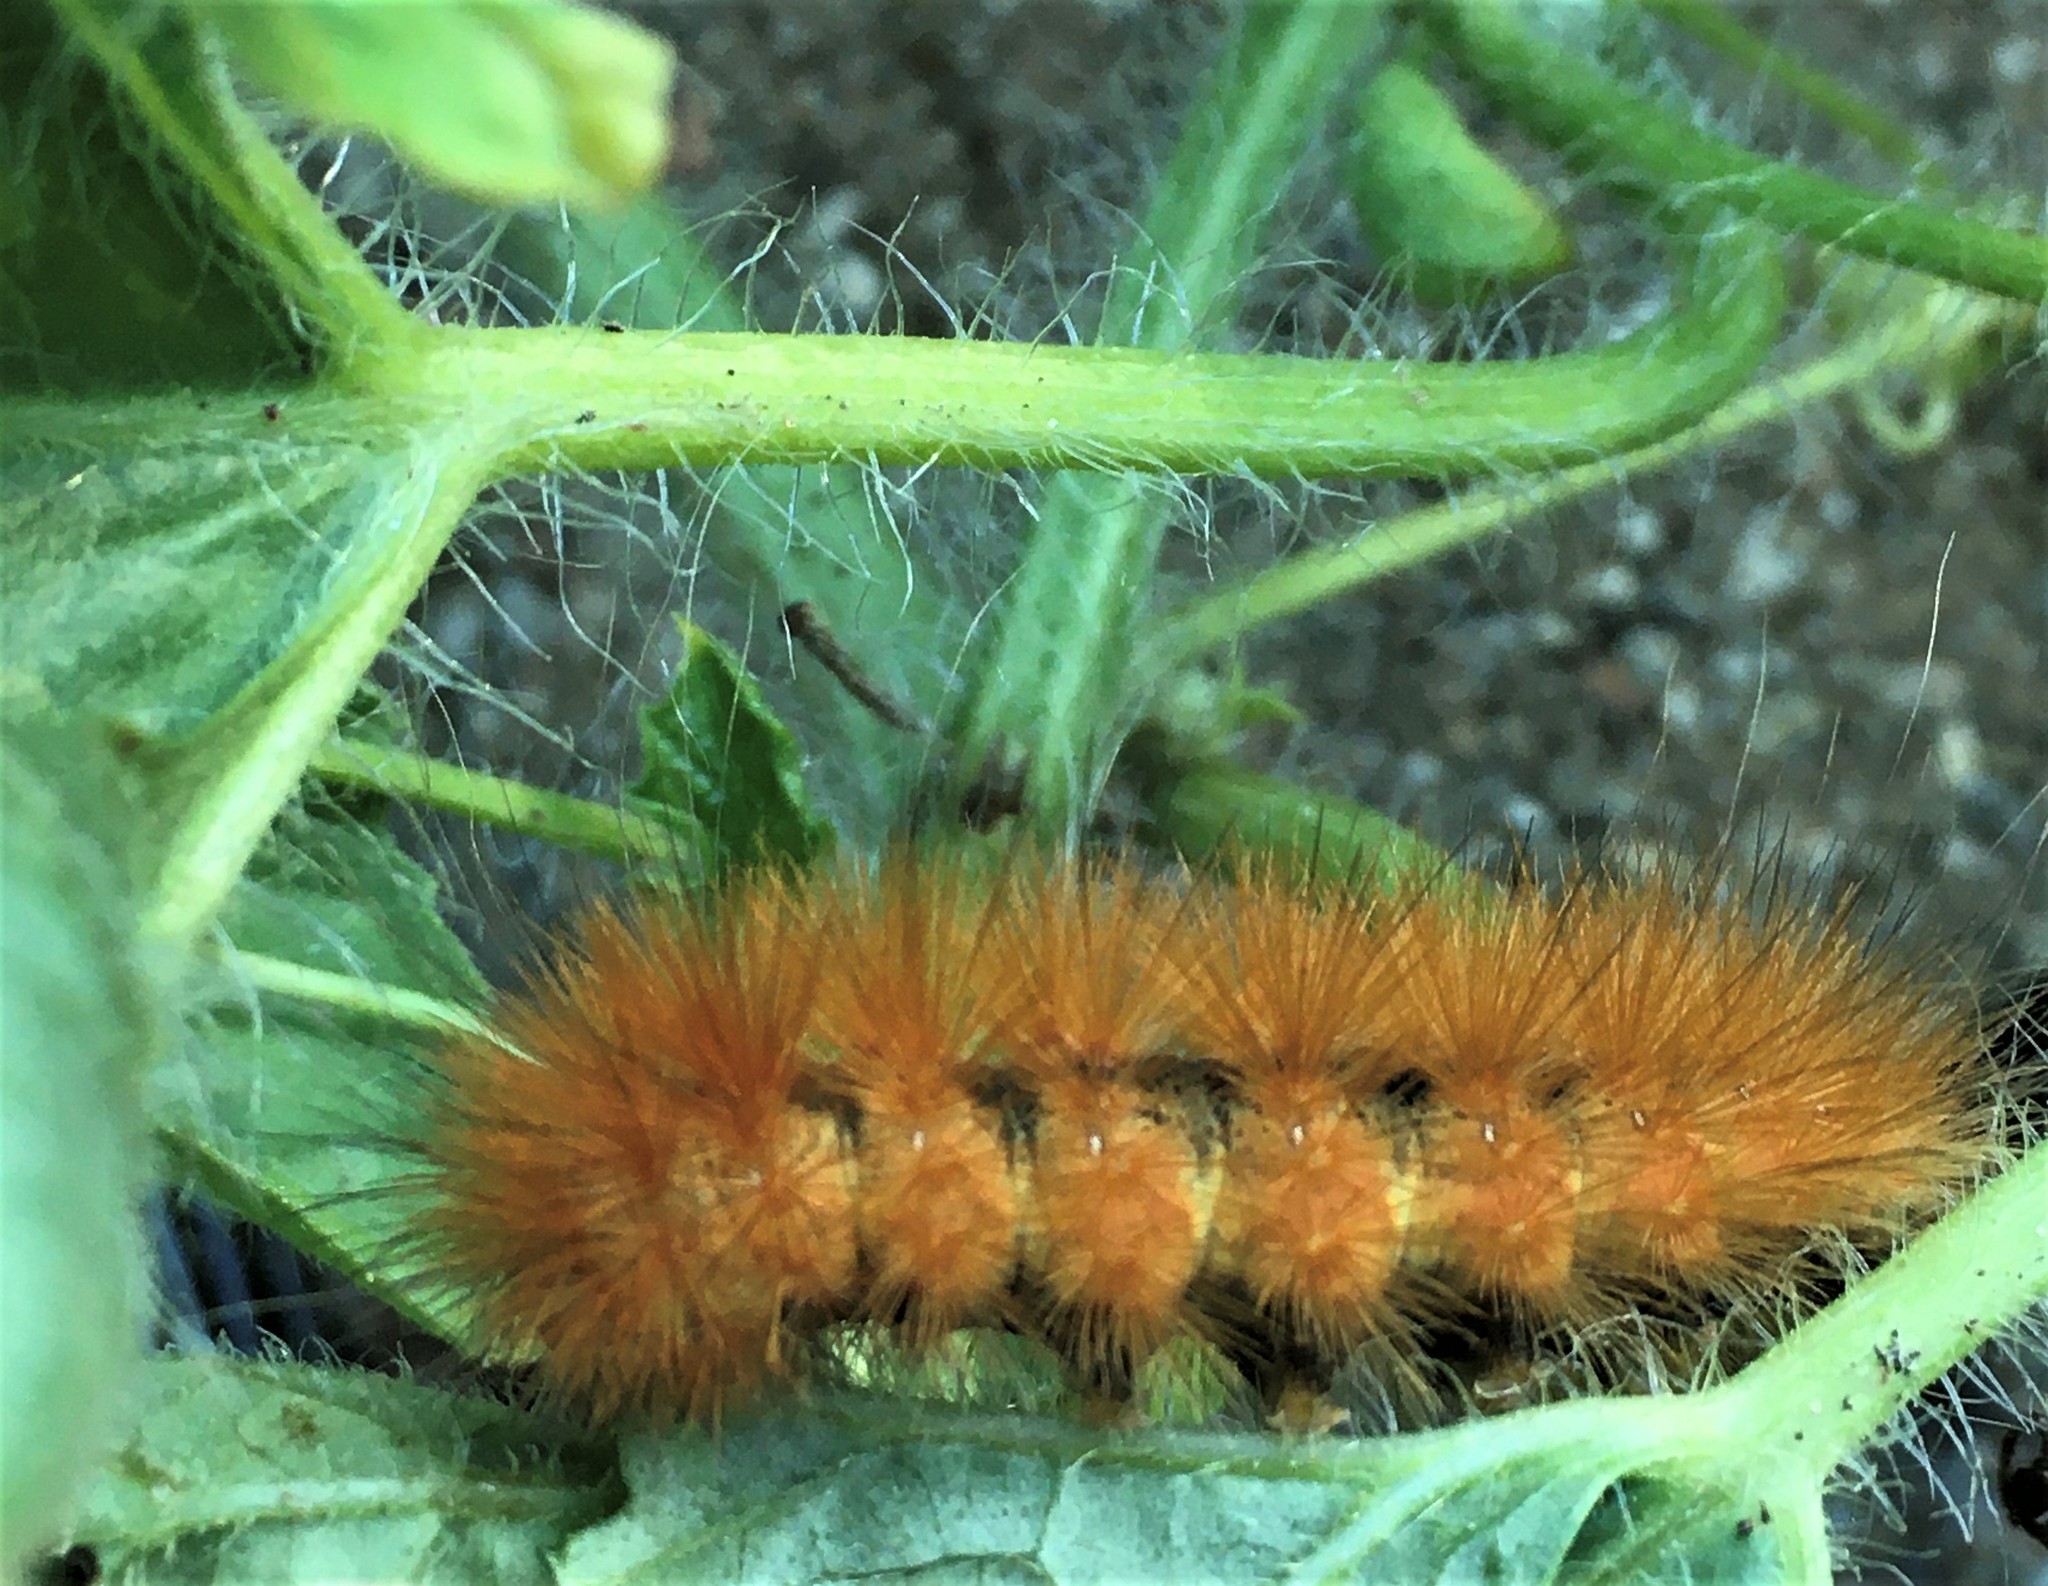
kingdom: Animalia
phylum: Arthropoda
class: Insecta
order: Lepidoptera
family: Erebidae
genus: Spilosoma
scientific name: Spilosoma virginica
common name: Virginia tiger moth
